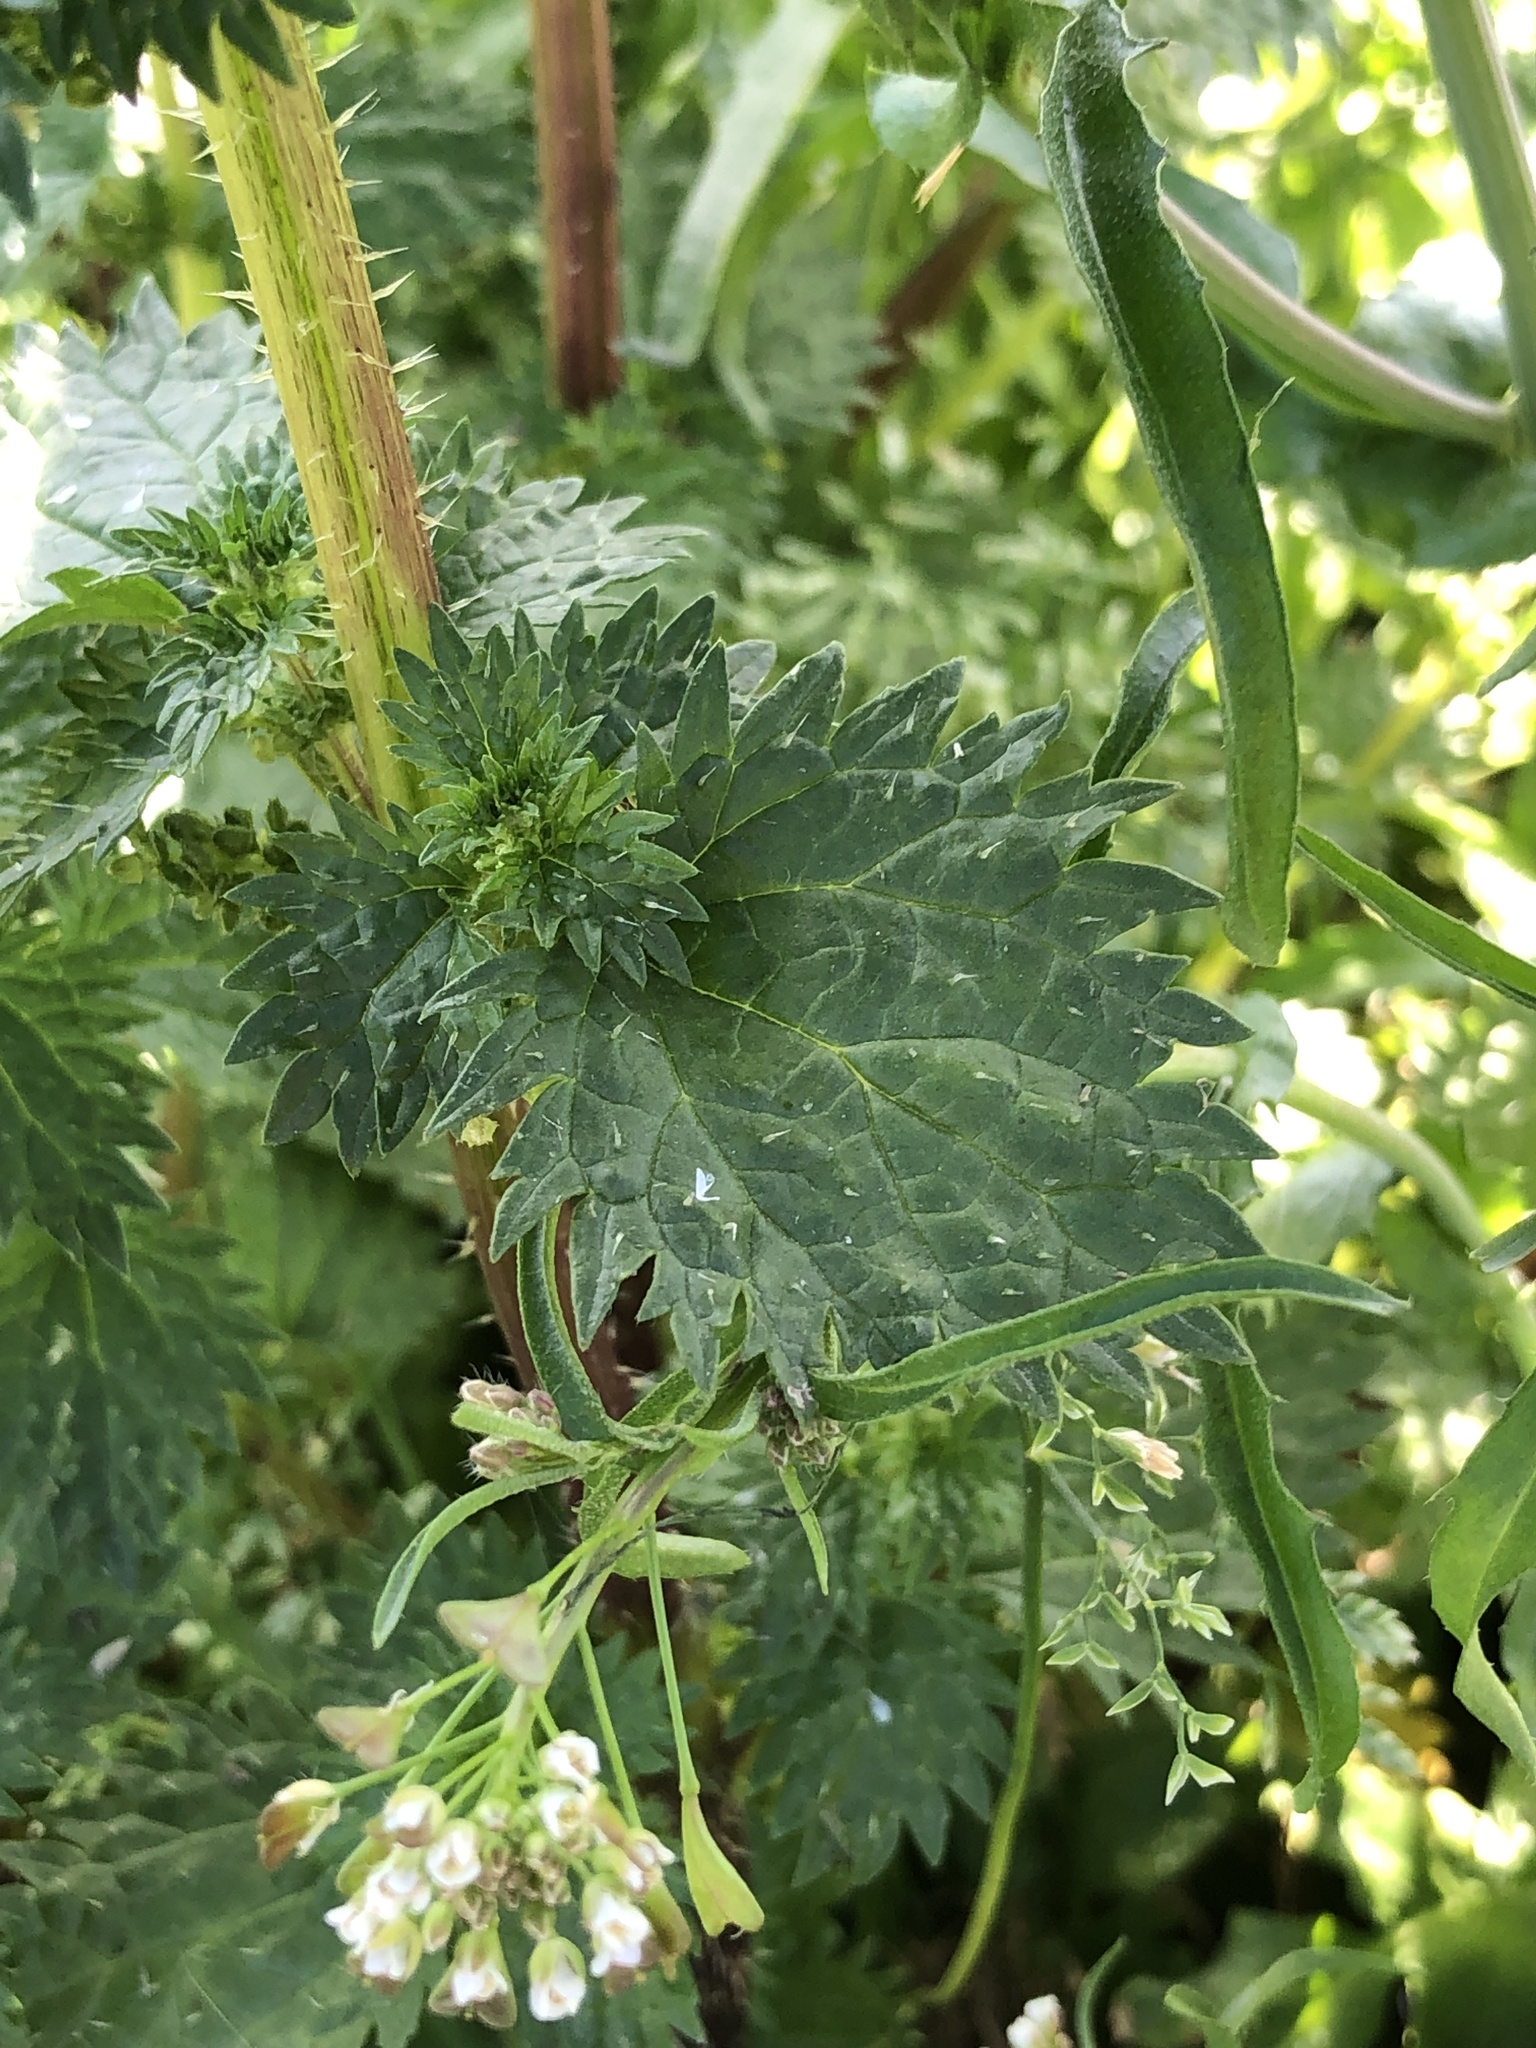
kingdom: Plantae
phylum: Tracheophyta
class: Magnoliopsida
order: Rosales
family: Urticaceae
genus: Urtica
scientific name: Urtica urens
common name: Dwarf nettle
